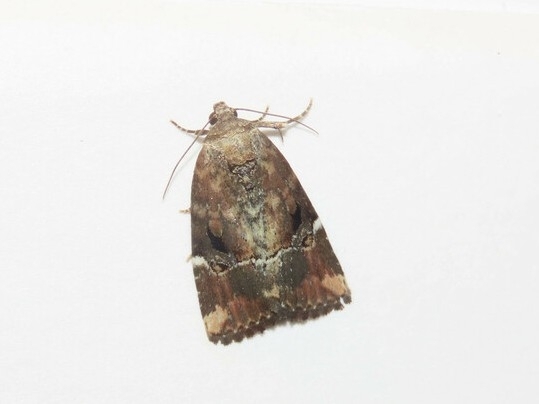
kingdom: Animalia
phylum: Arthropoda
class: Insecta
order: Lepidoptera
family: Noctuidae
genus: Elaphria
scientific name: Elaphria versicolor
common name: Fir harlequin
